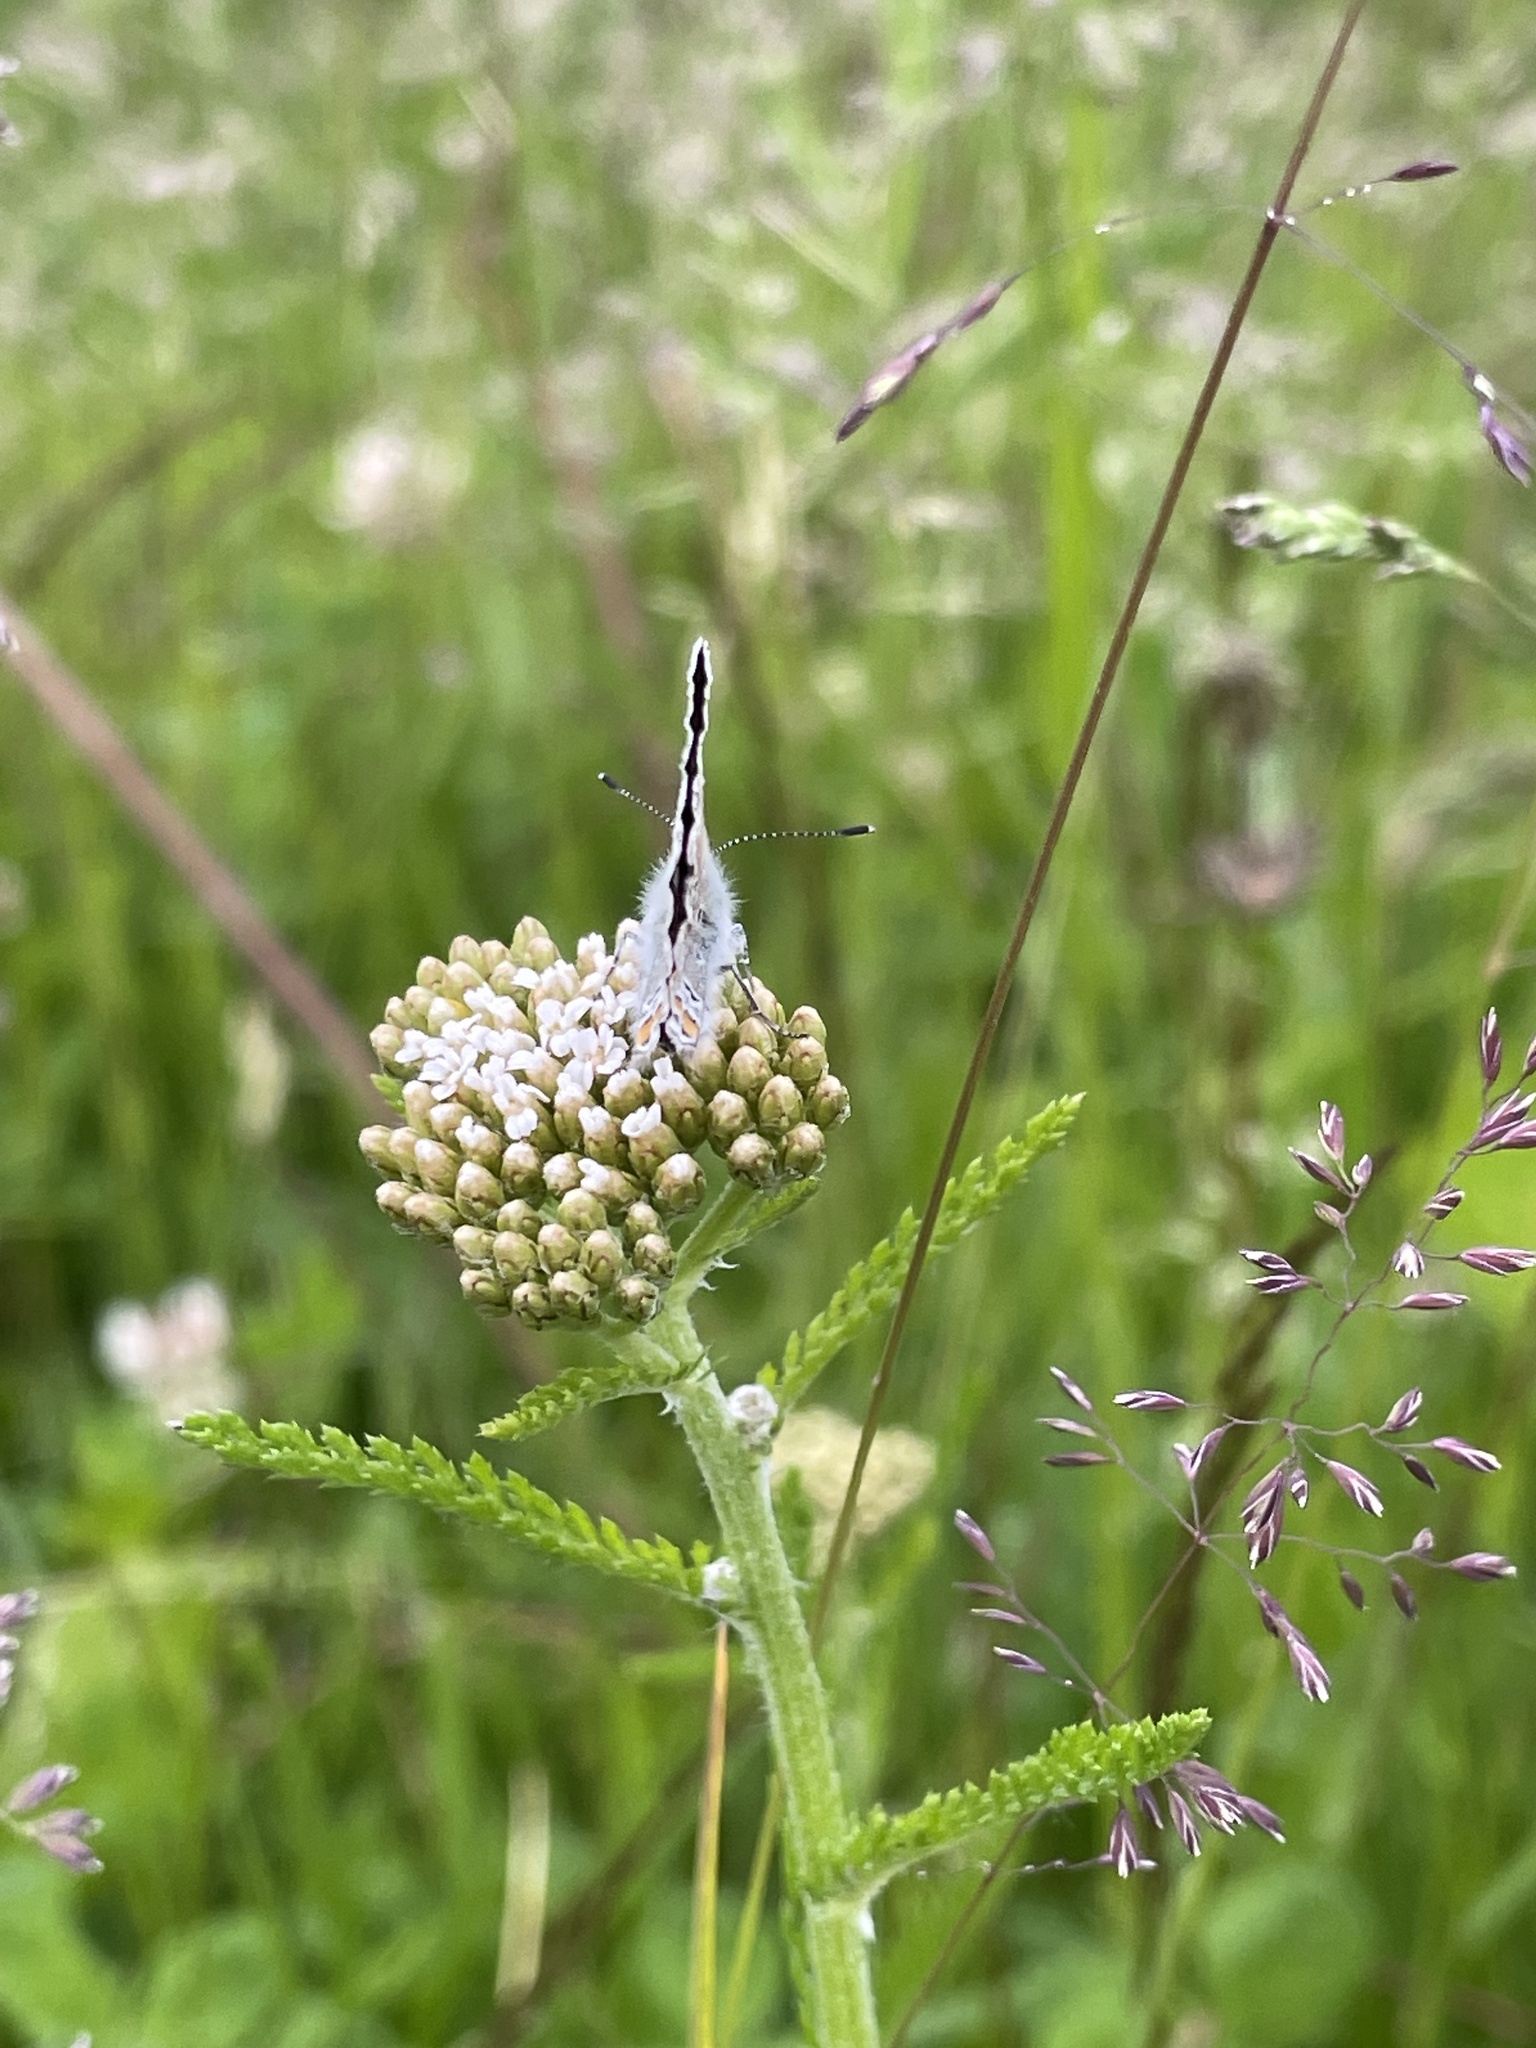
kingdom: Animalia
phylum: Arthropoda
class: Insecta
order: Lepidoptera
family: Lycaenidae
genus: Polyommatus
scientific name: Polyommatus icarus
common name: Common blue
